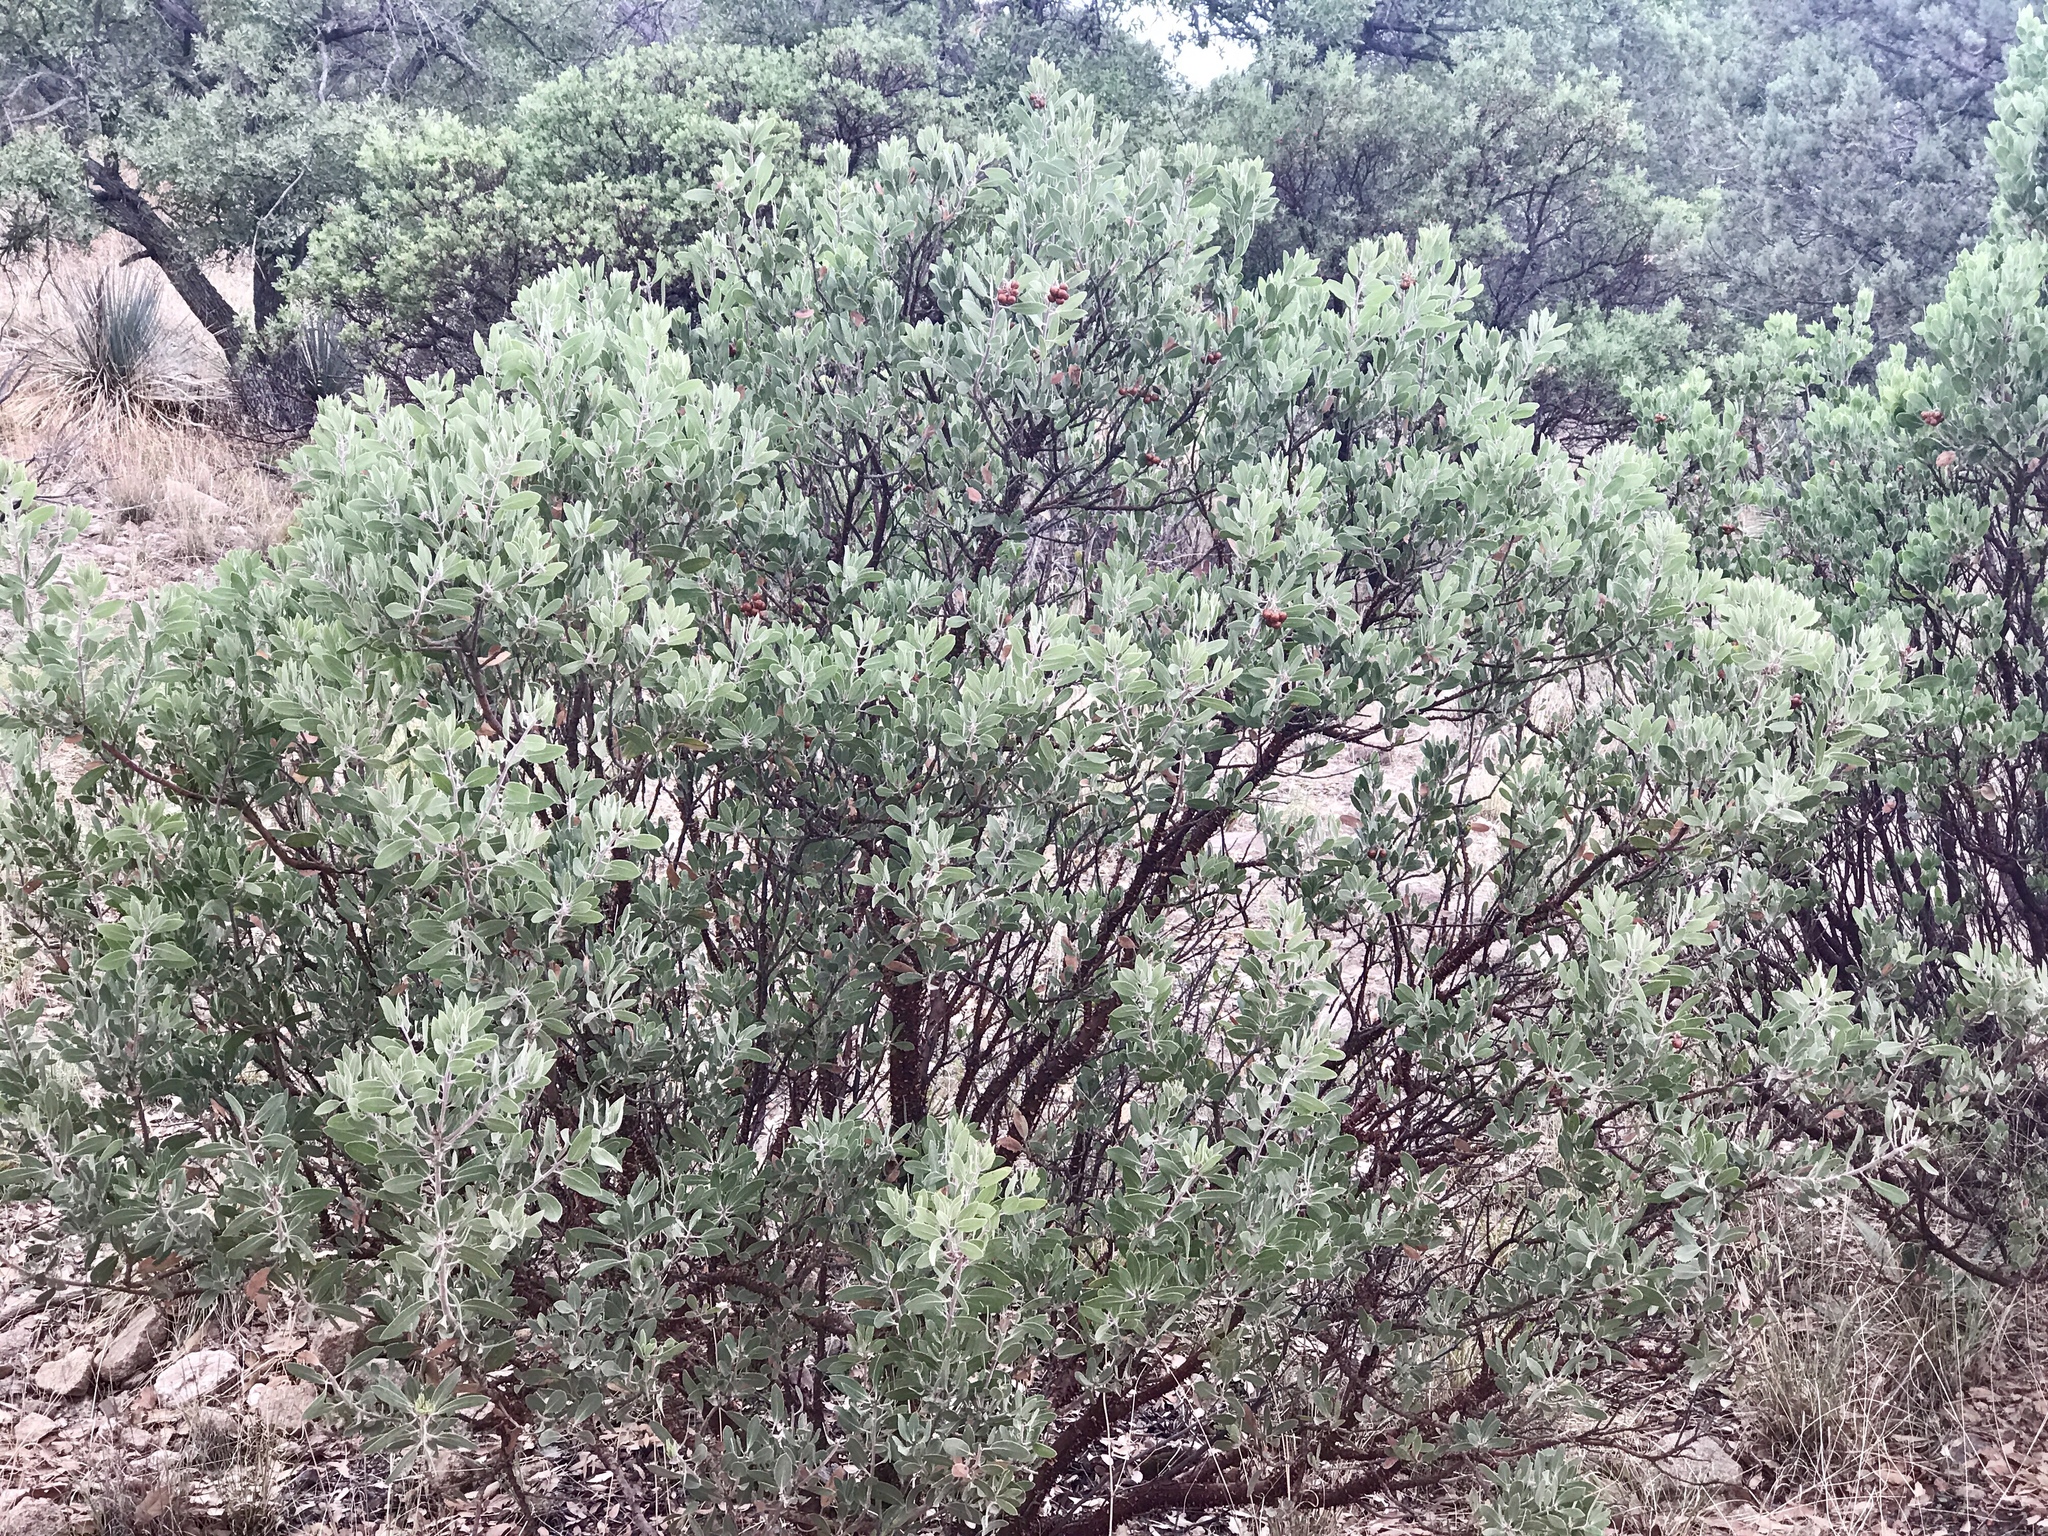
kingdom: Plantae
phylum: Tracheophyta
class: Magnoliopsida
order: Ericales
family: Ericaceae
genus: Arctostaphylos
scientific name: Arctostaphylos pungens
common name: Mexican manzanita
